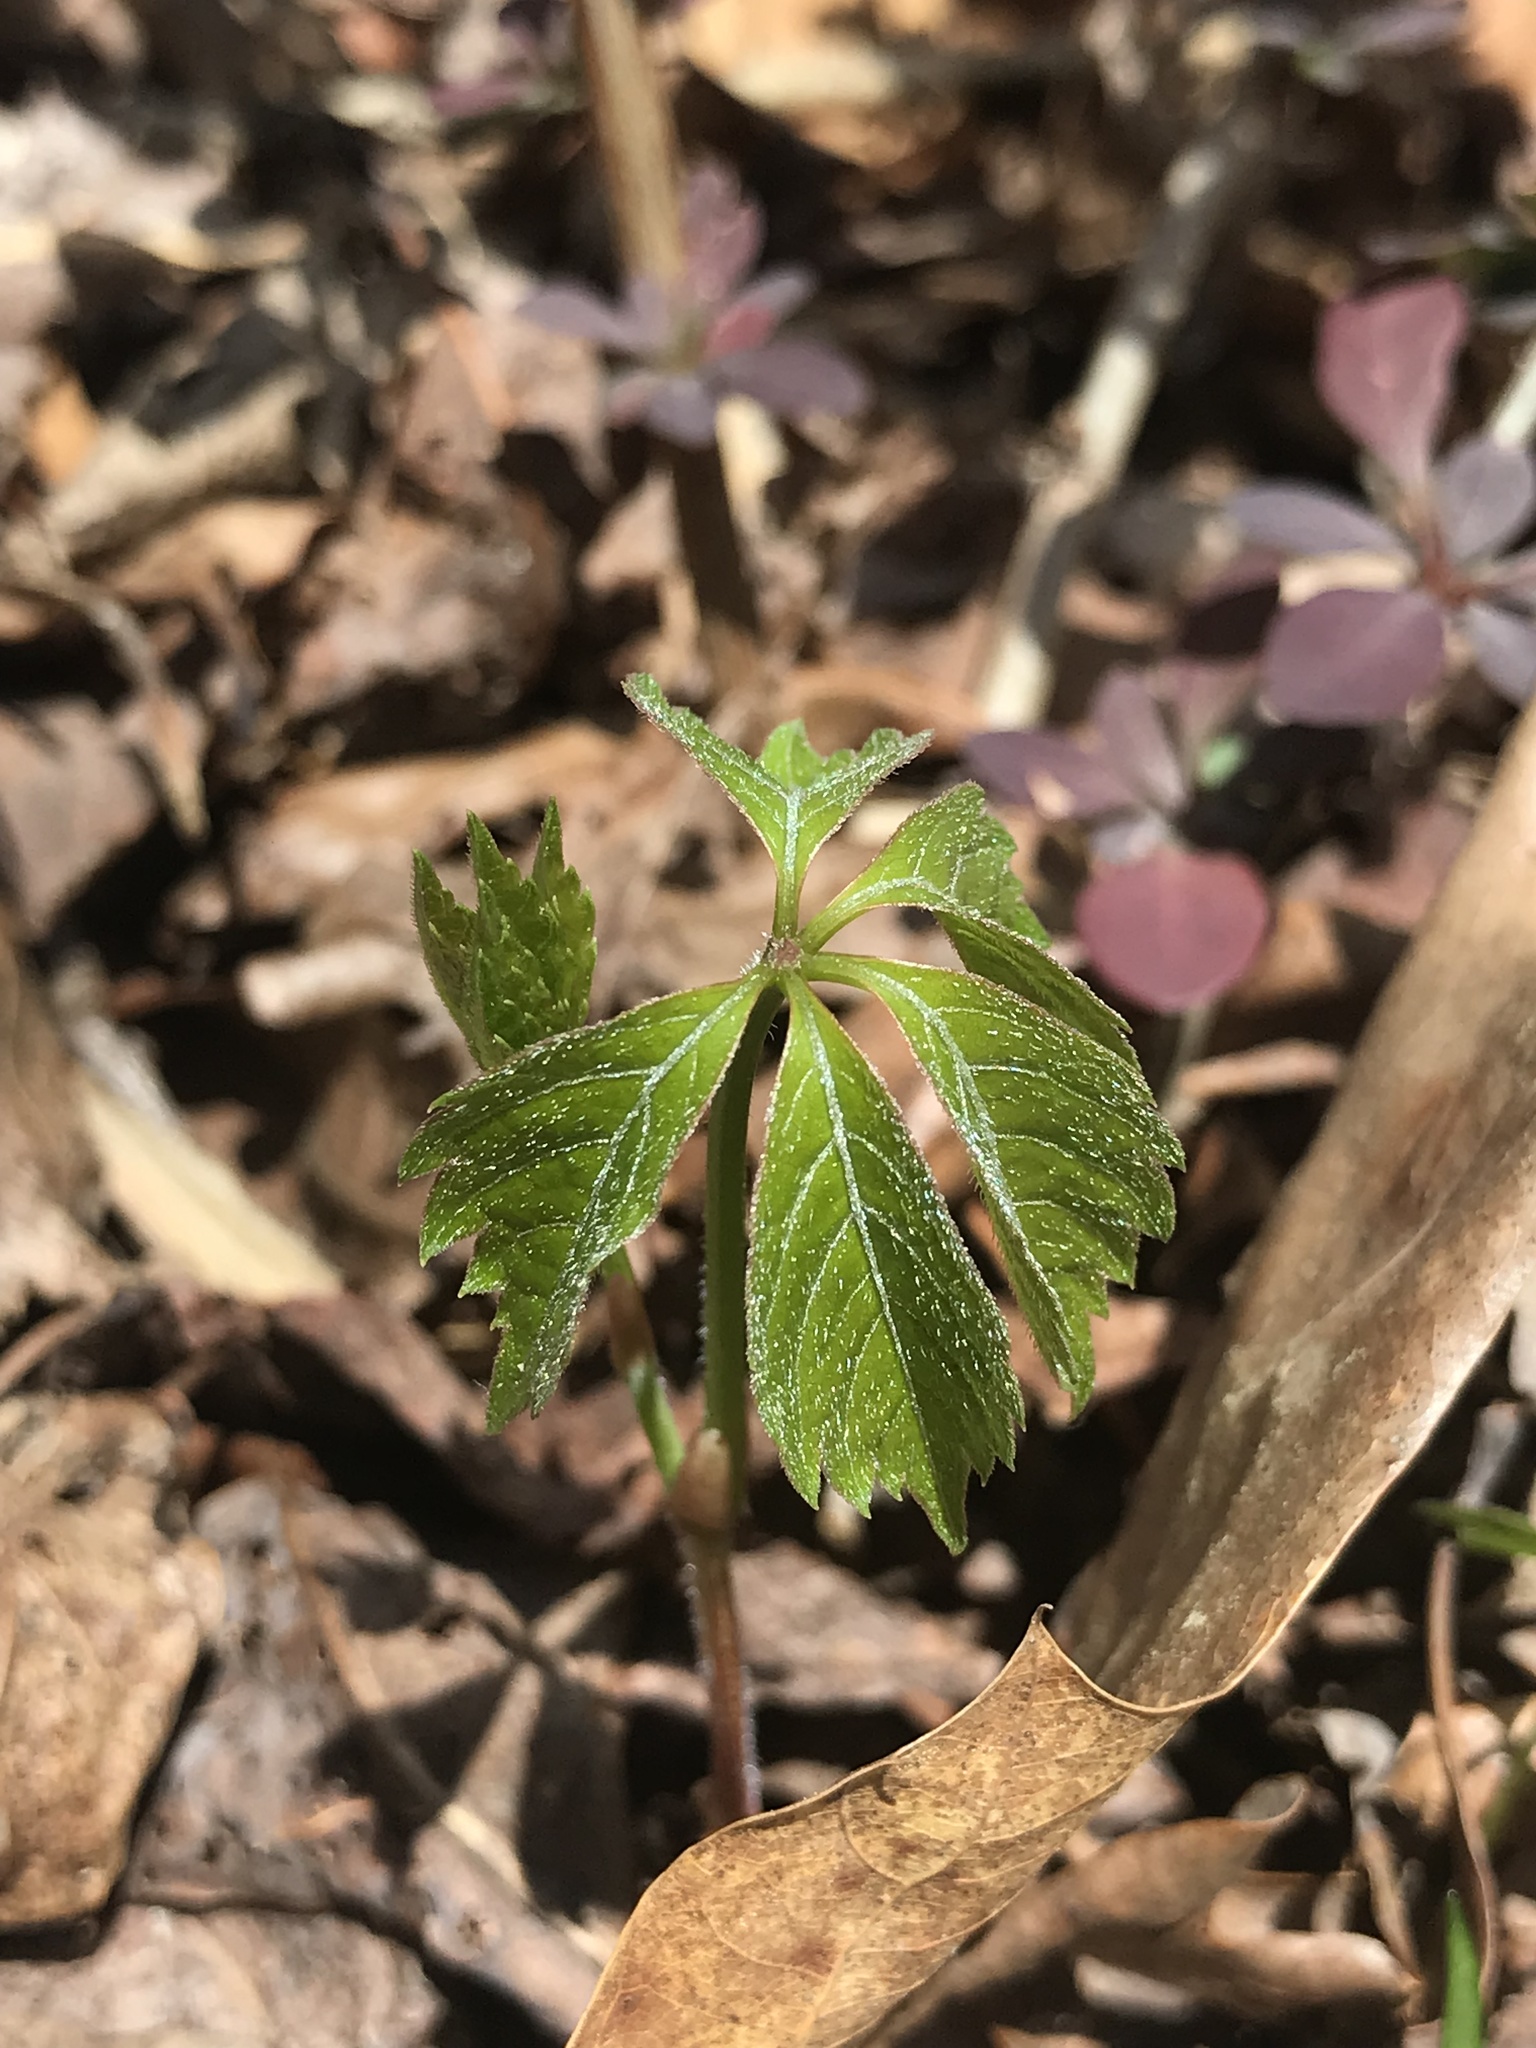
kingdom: Plantae
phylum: Tracheophyta
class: Magnoliopsida
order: Vitales
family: Vitaceae
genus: Parthenocissus
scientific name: Parthenocissus quinquefolia
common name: Virginia-creeper
